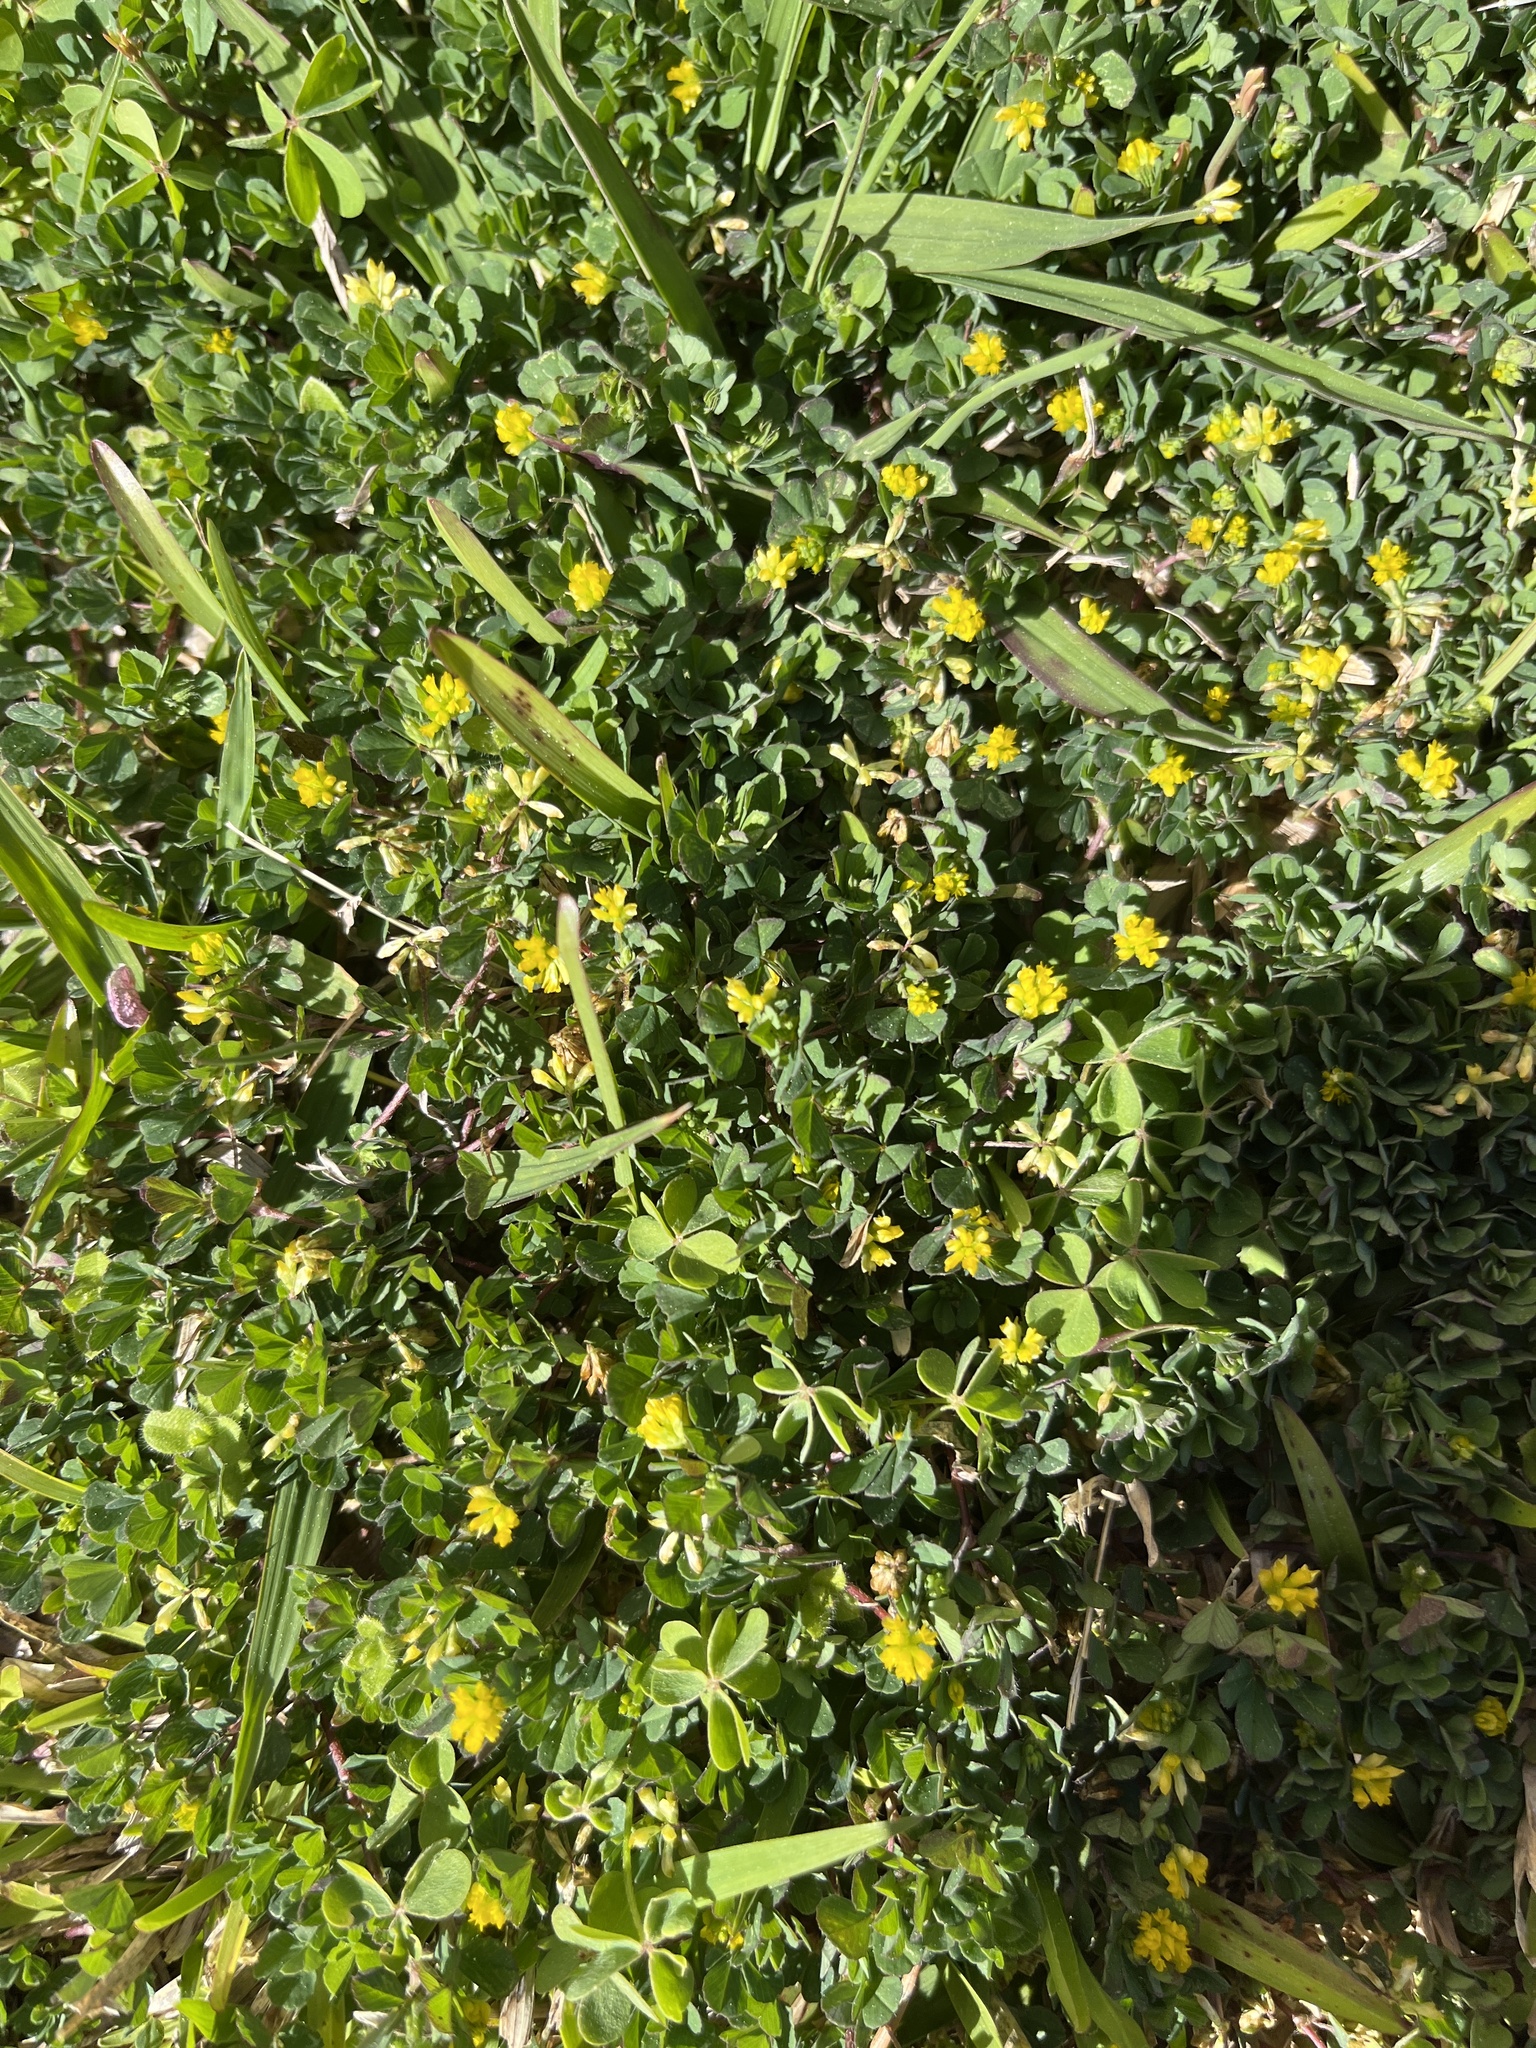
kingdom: Plantae
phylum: Tracheophyta
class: Magnoliopsida
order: Fabales
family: Fabaceae
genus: Trifolium
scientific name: Trifolium dubium
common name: Suckling clover
